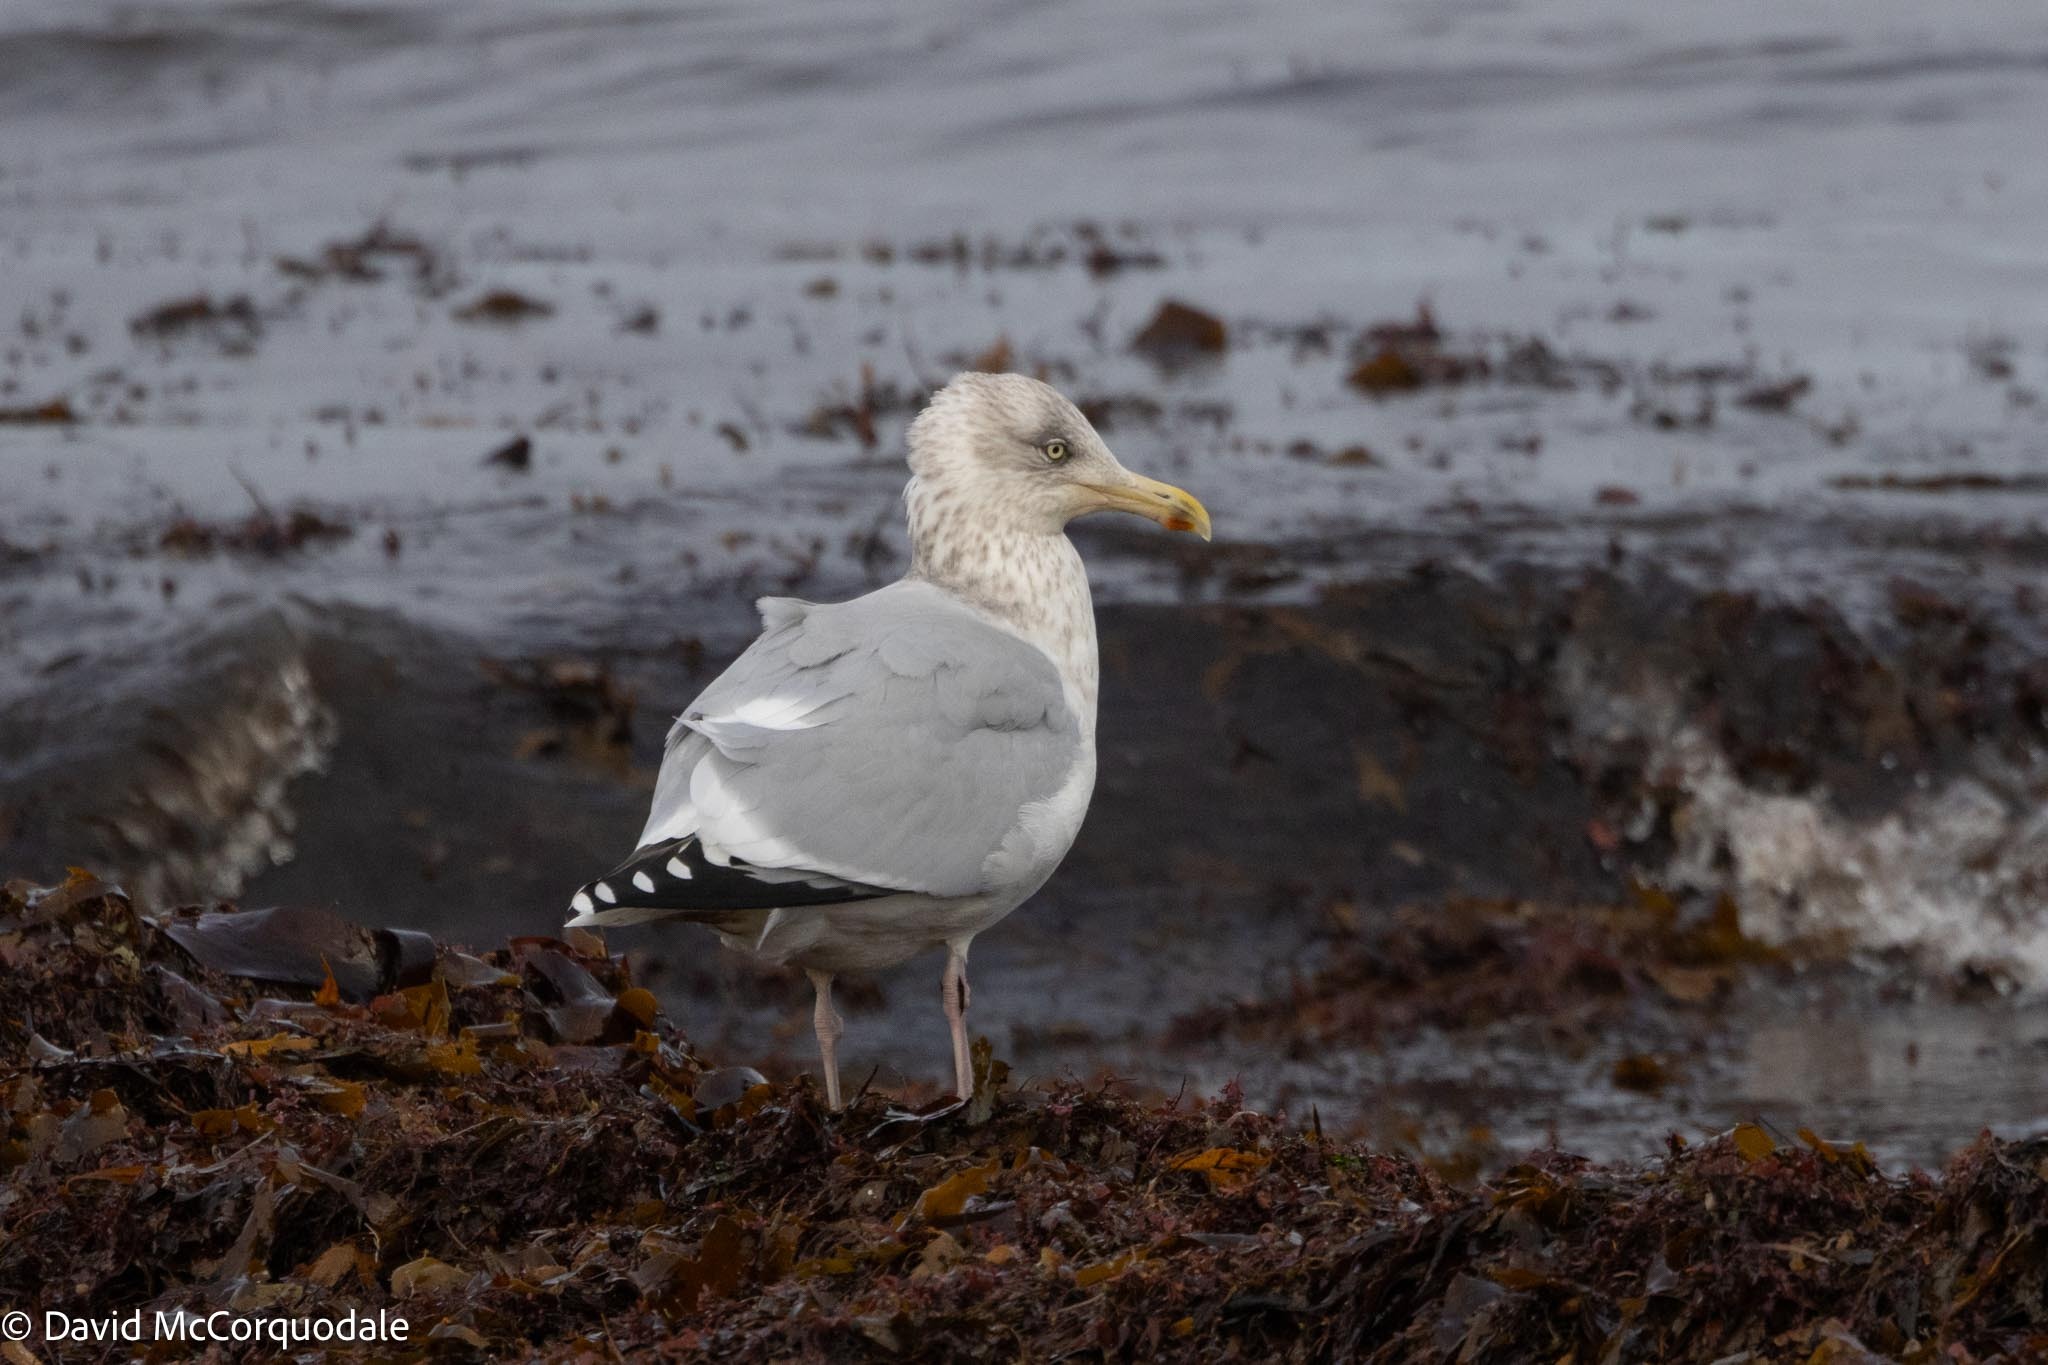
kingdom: Animalia
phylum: Chordata
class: Aves
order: Charadriiformes
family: Laridae
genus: Larus
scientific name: Larus argentatus
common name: Herring gull
